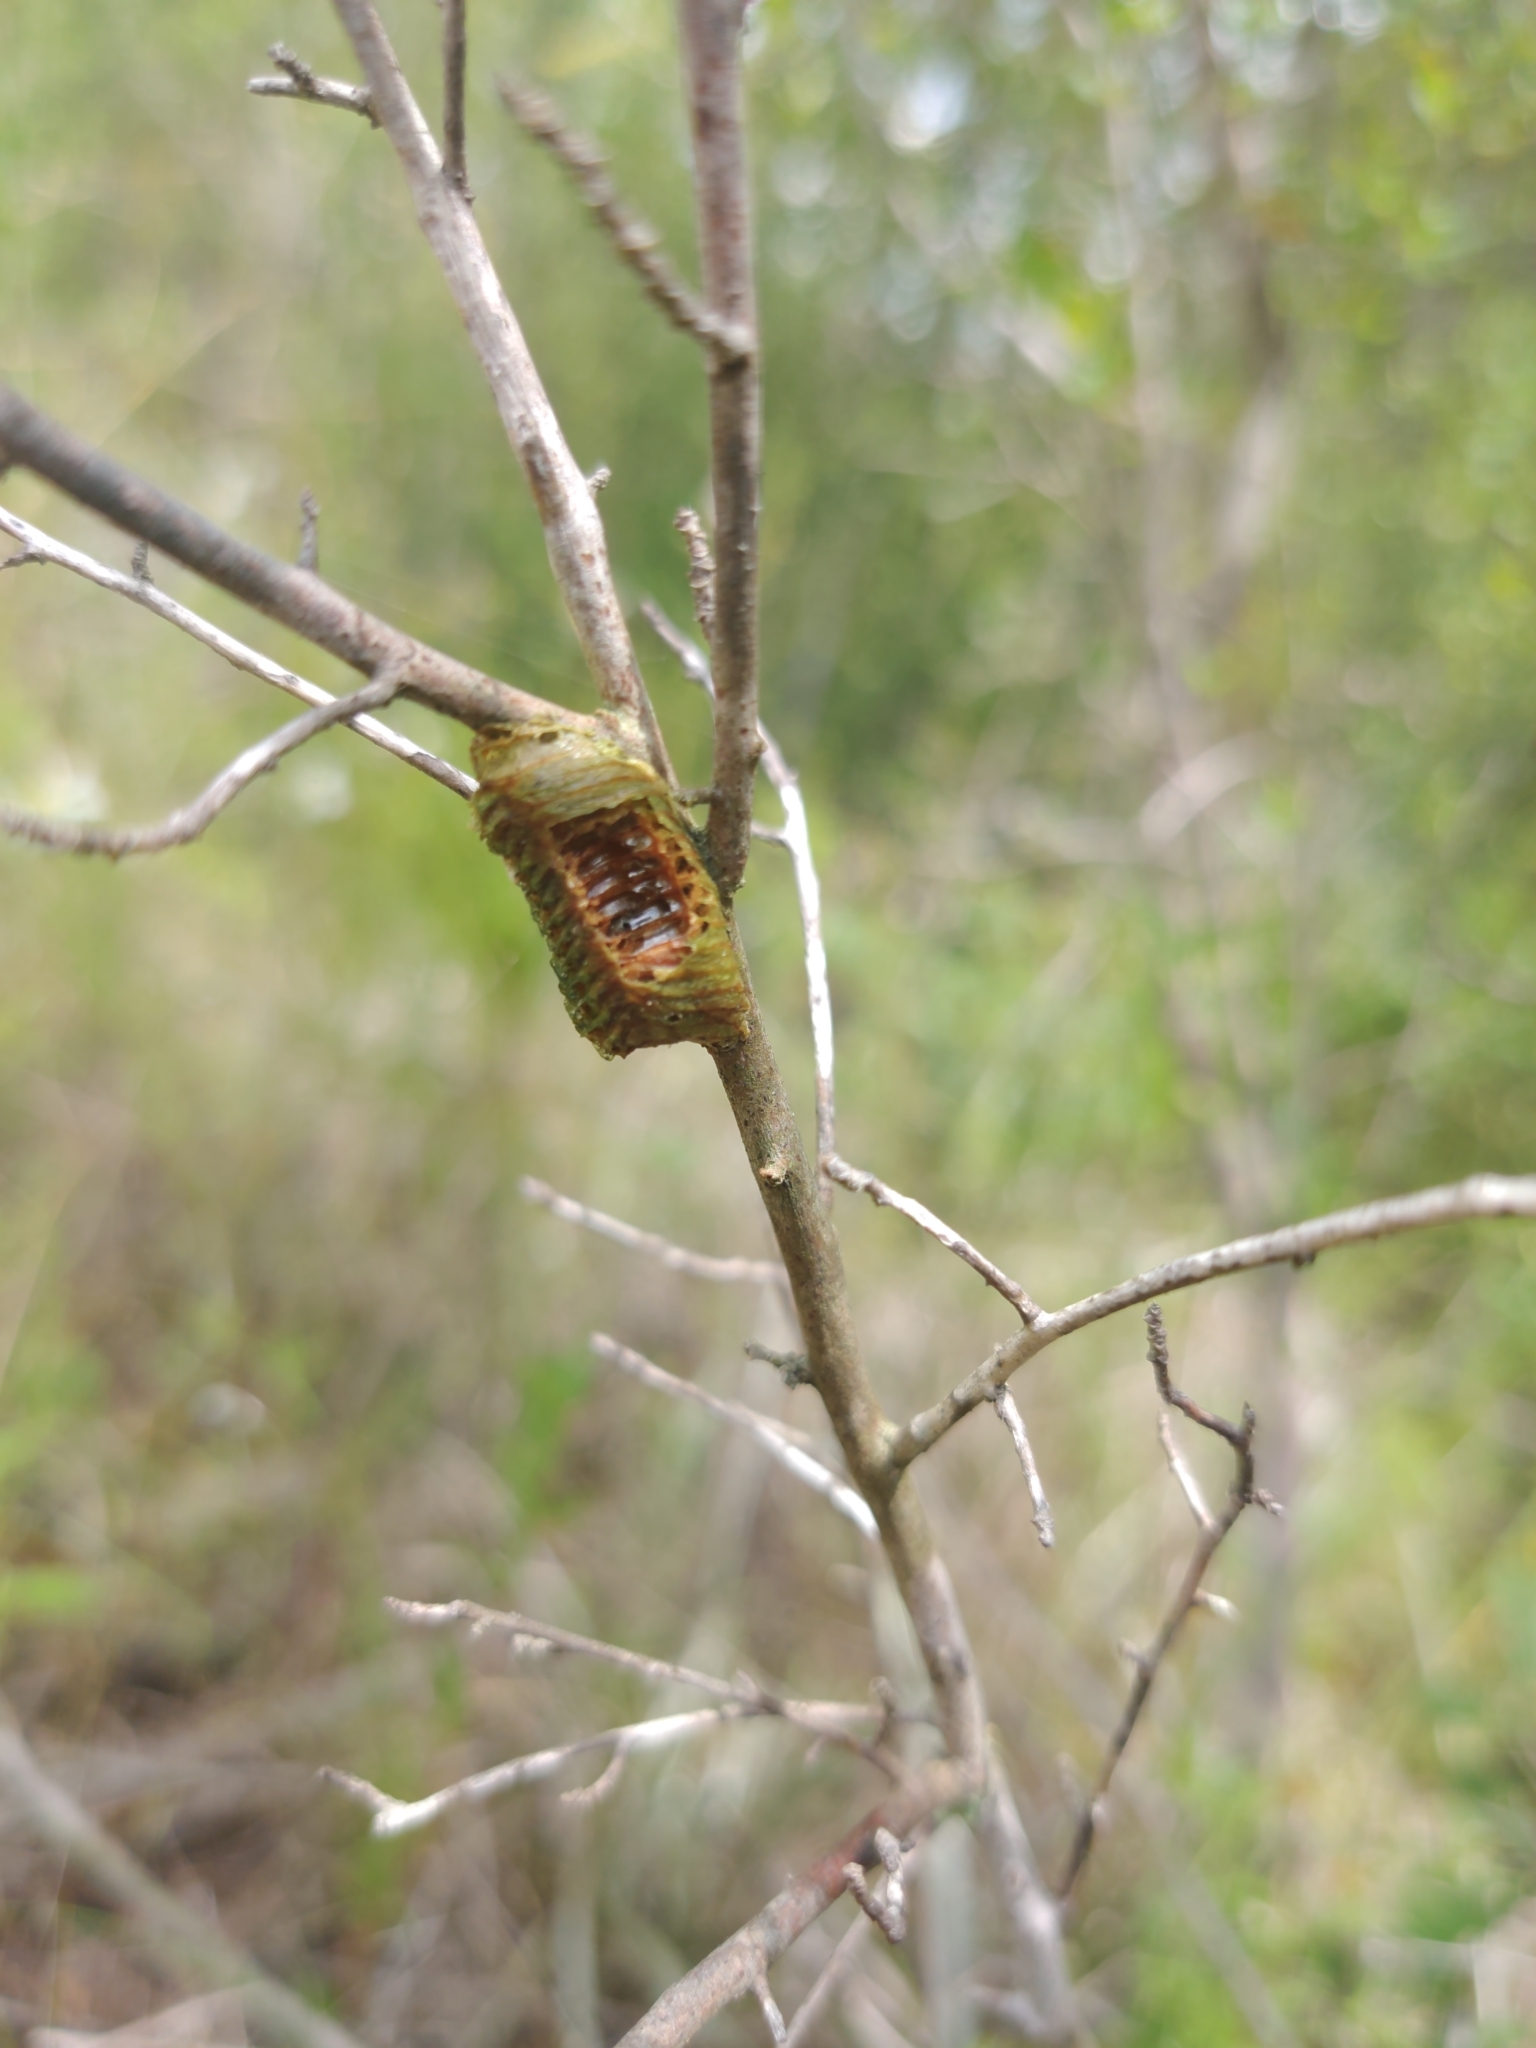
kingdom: Animalia
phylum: Arthropoda
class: Insecta
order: Mantodea
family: Mantidae
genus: Stagmomantis
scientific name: Stagmomantis carolina
